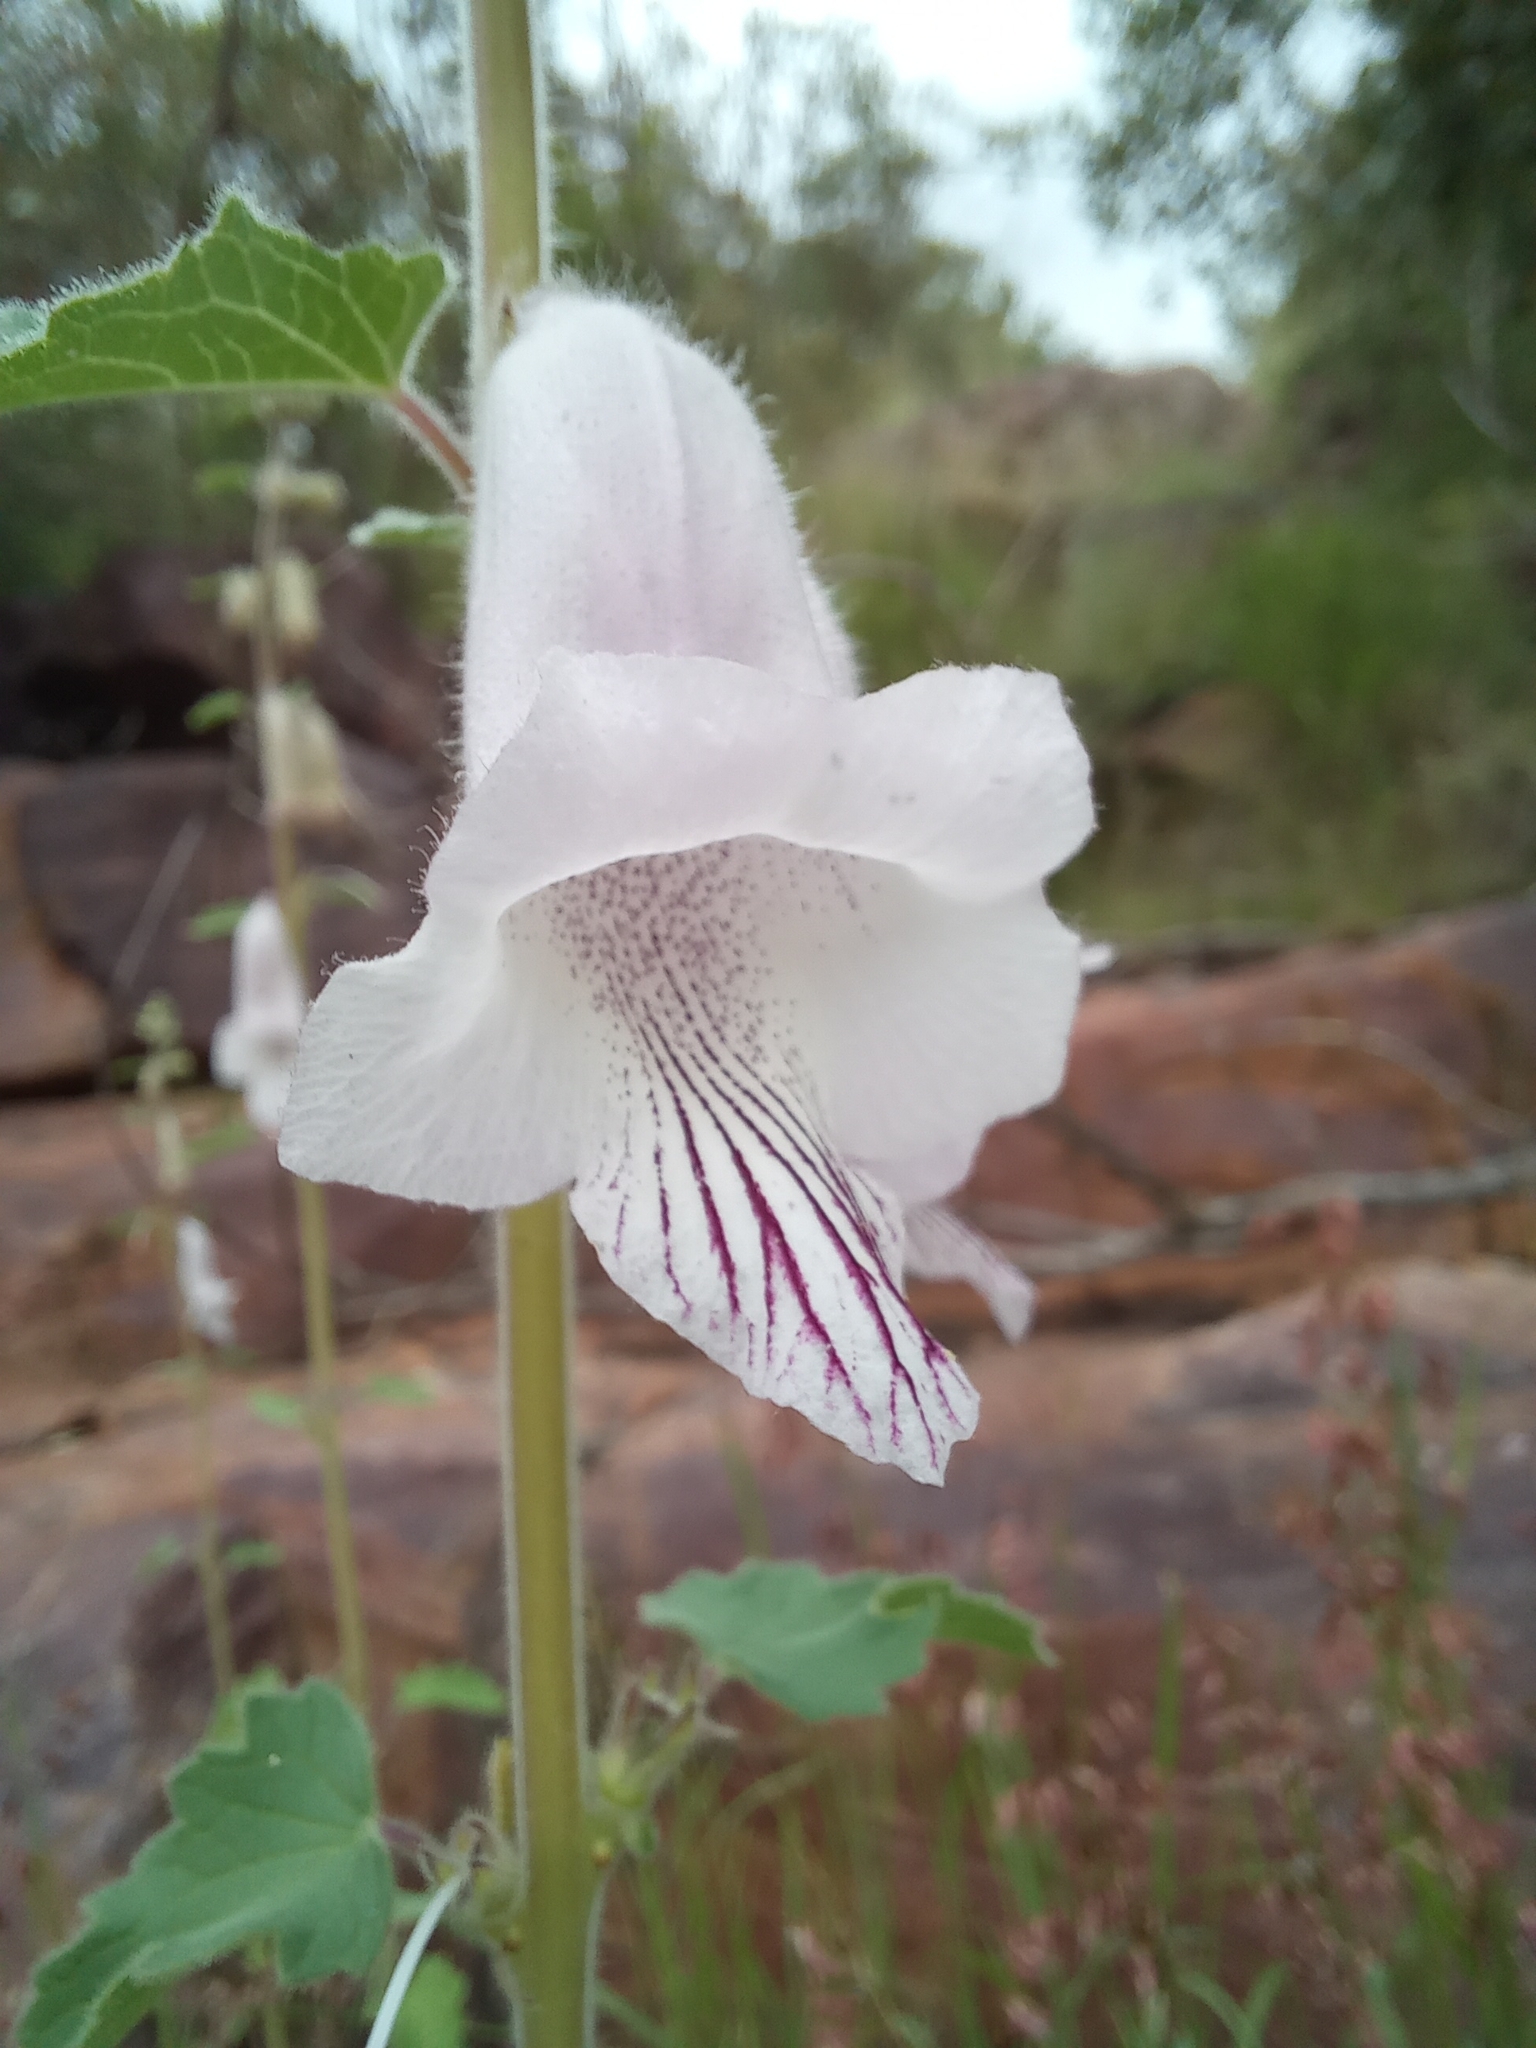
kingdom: Plantae
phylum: Tracheophyta
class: Magnoliopsida
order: Lamiales
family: Pedaliaceae
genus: Sesamum
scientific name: Sesamum trilobum
